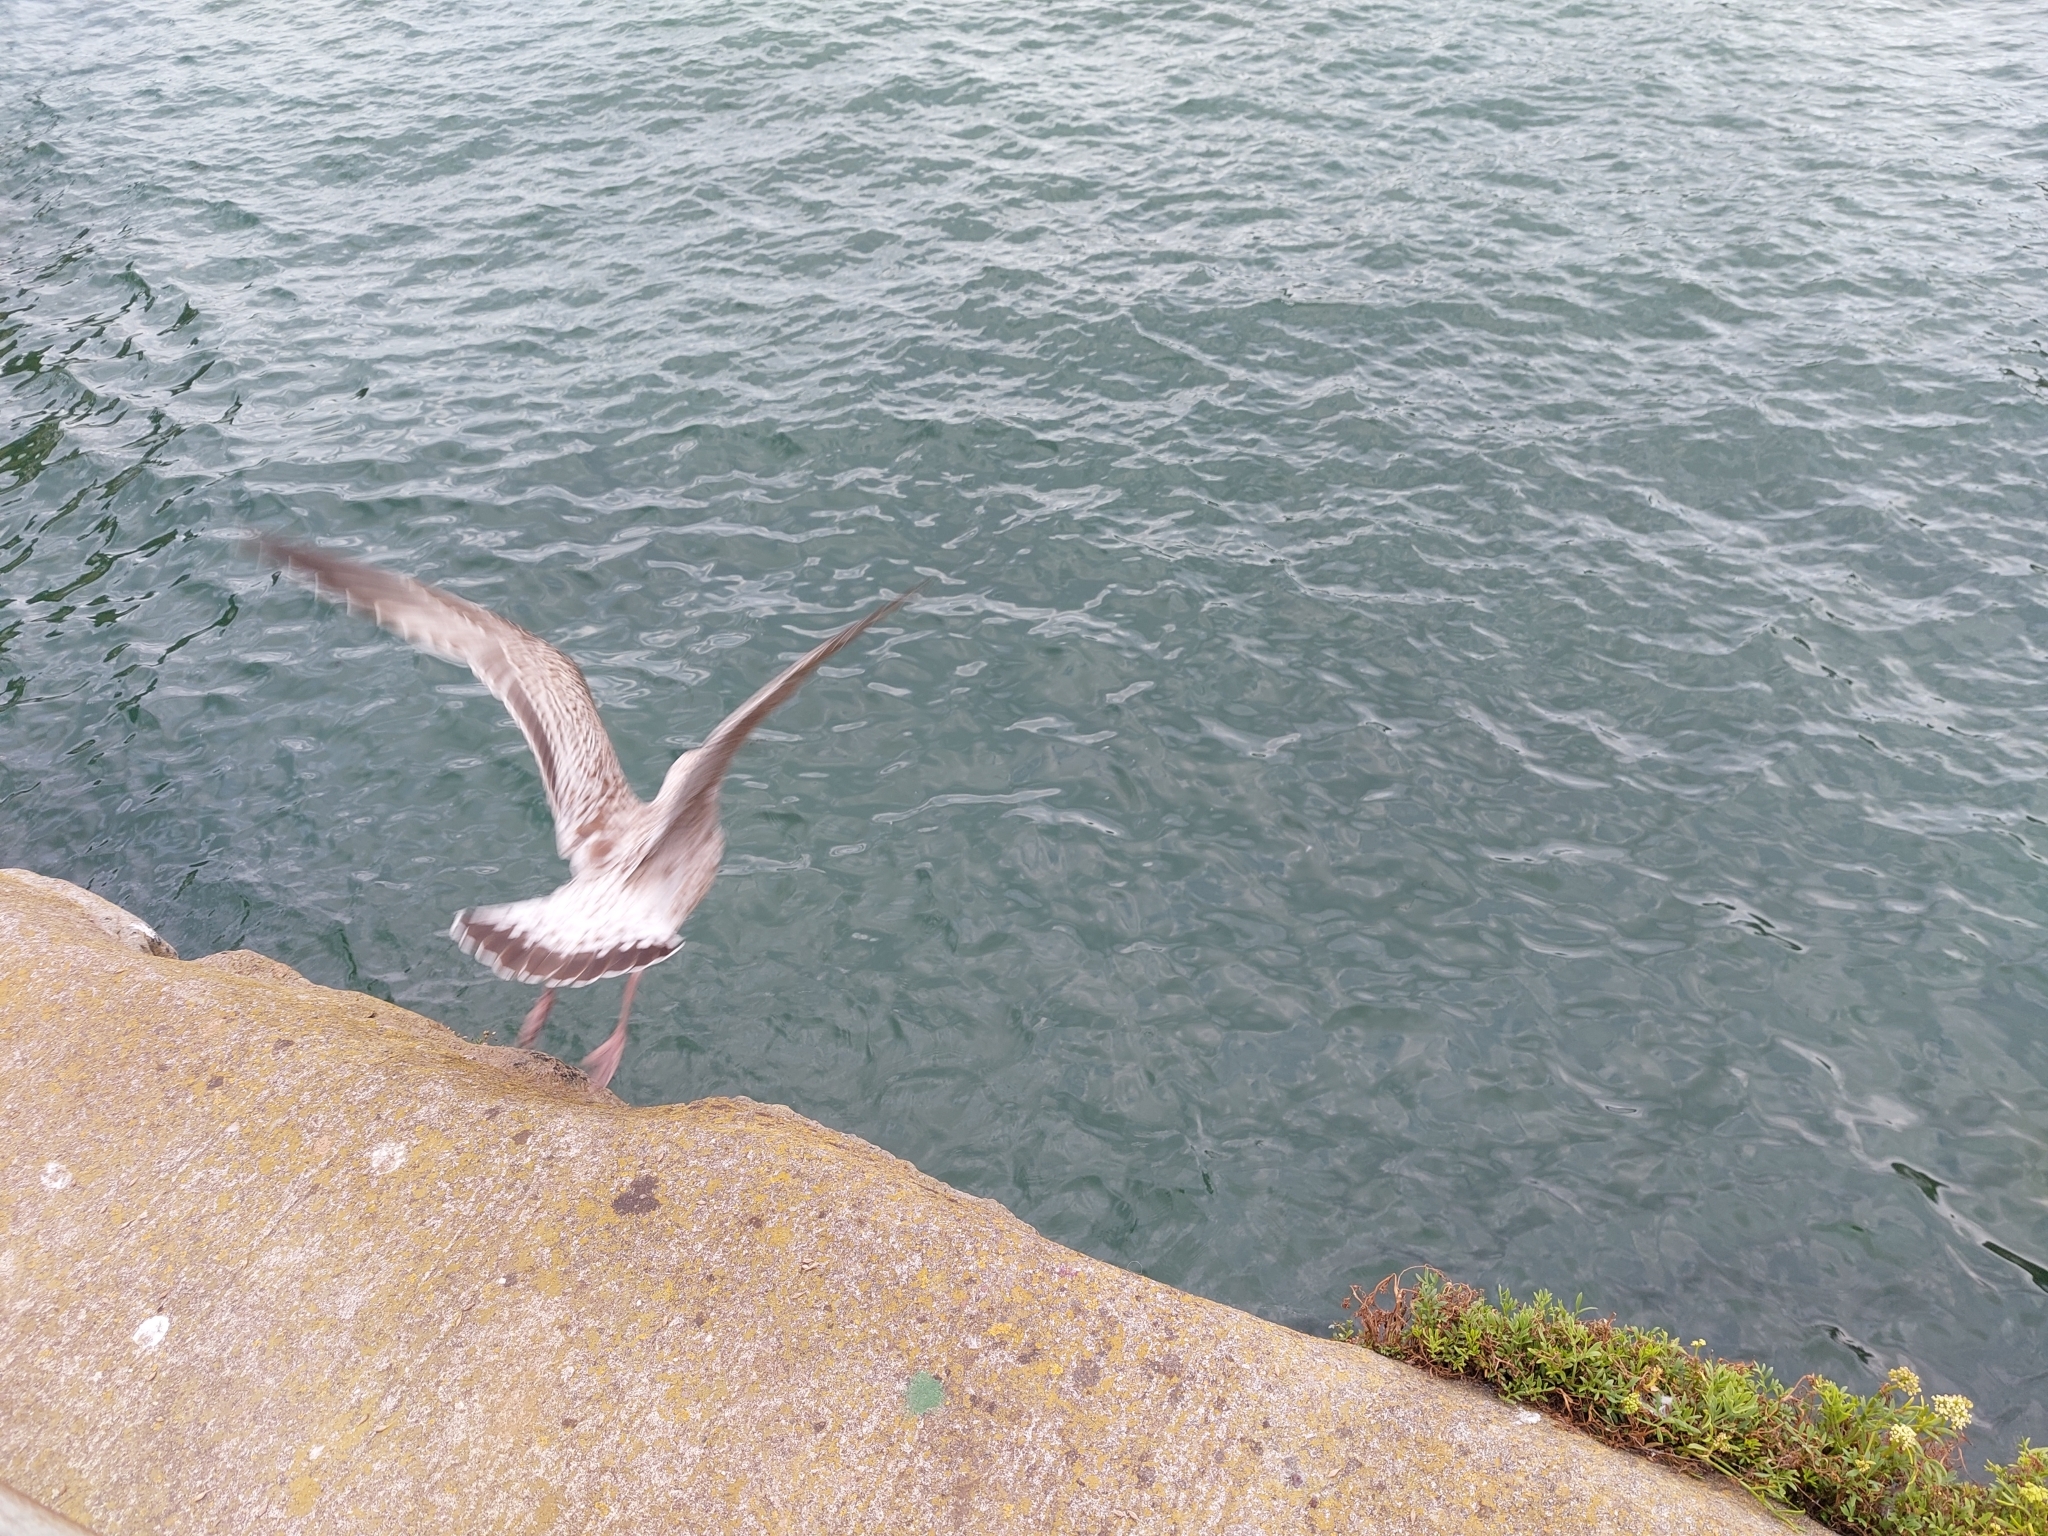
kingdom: Animalia
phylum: Chordata
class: Aves
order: Charadriiformes
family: Laridae
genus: Larus
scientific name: Larus argentatus
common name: Herring gull
